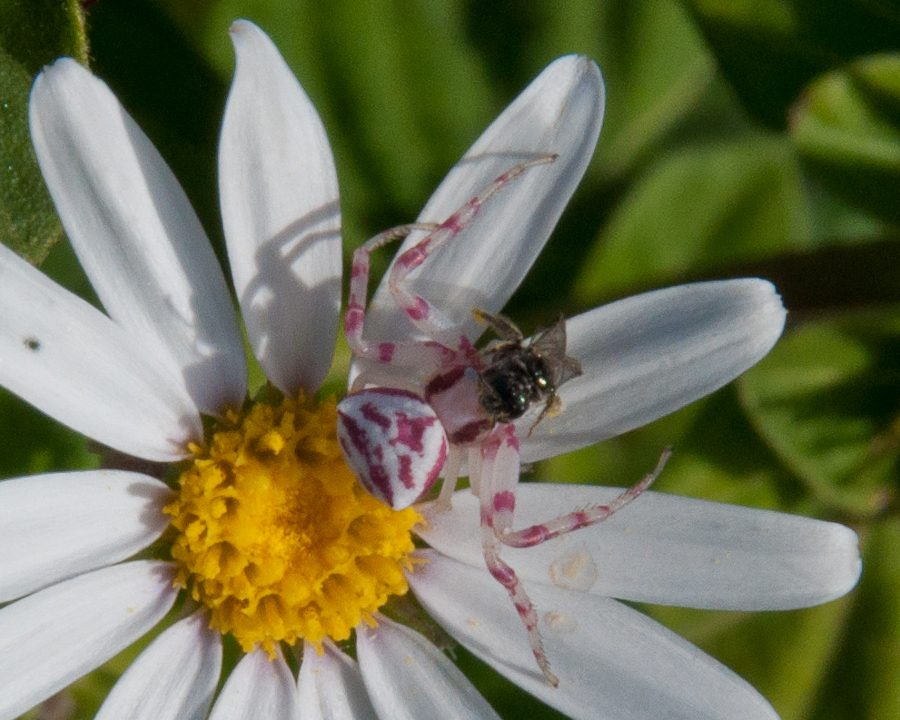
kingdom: Animalia
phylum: Arthropoda
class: Arachnida
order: Araneae
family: Thomisidae
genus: Thomisus
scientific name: Thomisus citrinellus
